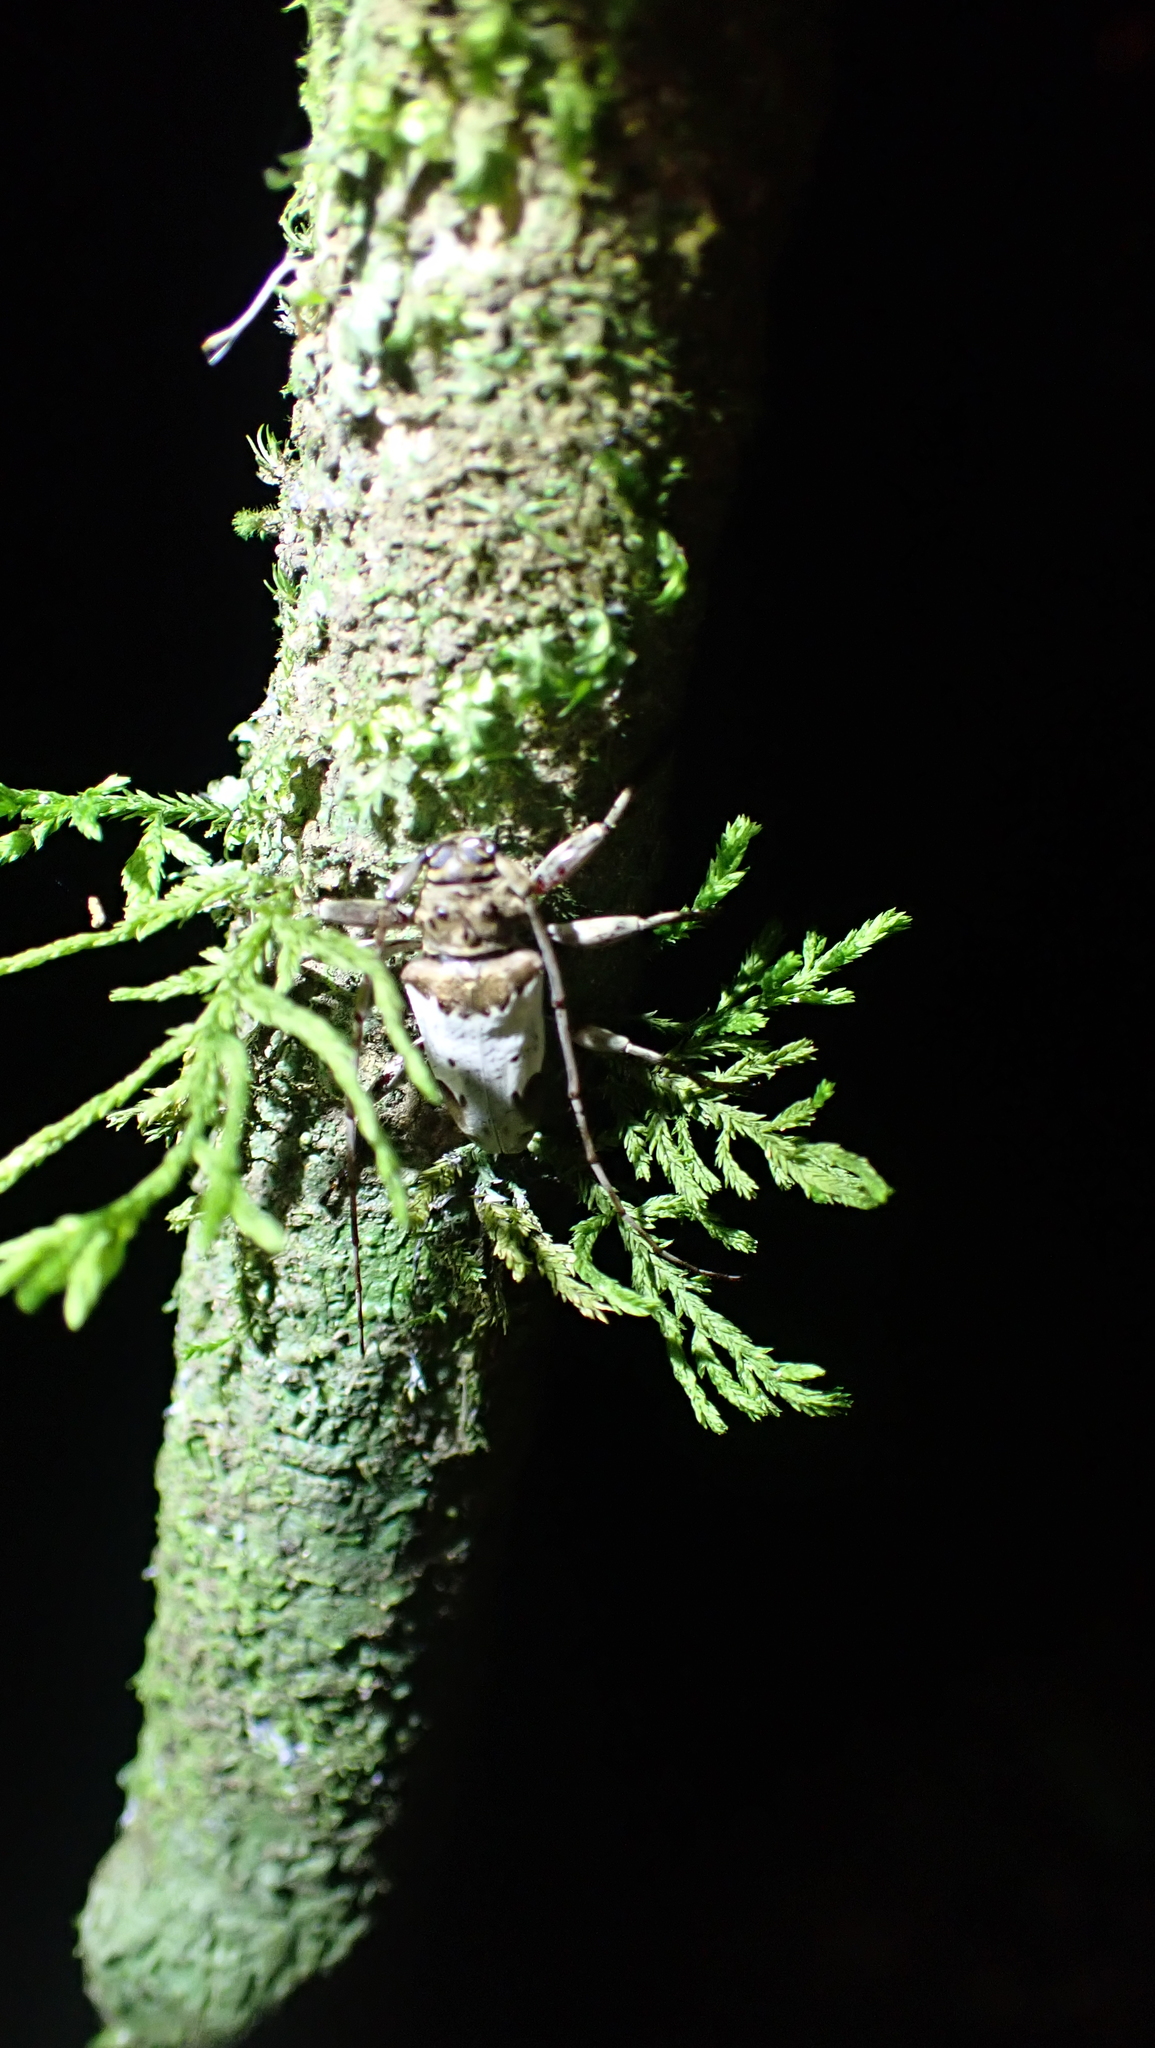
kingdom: Animalia
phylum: Arthropoda
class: Insecta
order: Coleoptera
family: Cerambycidae
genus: Oreodera
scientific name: Oreodera canotogata
